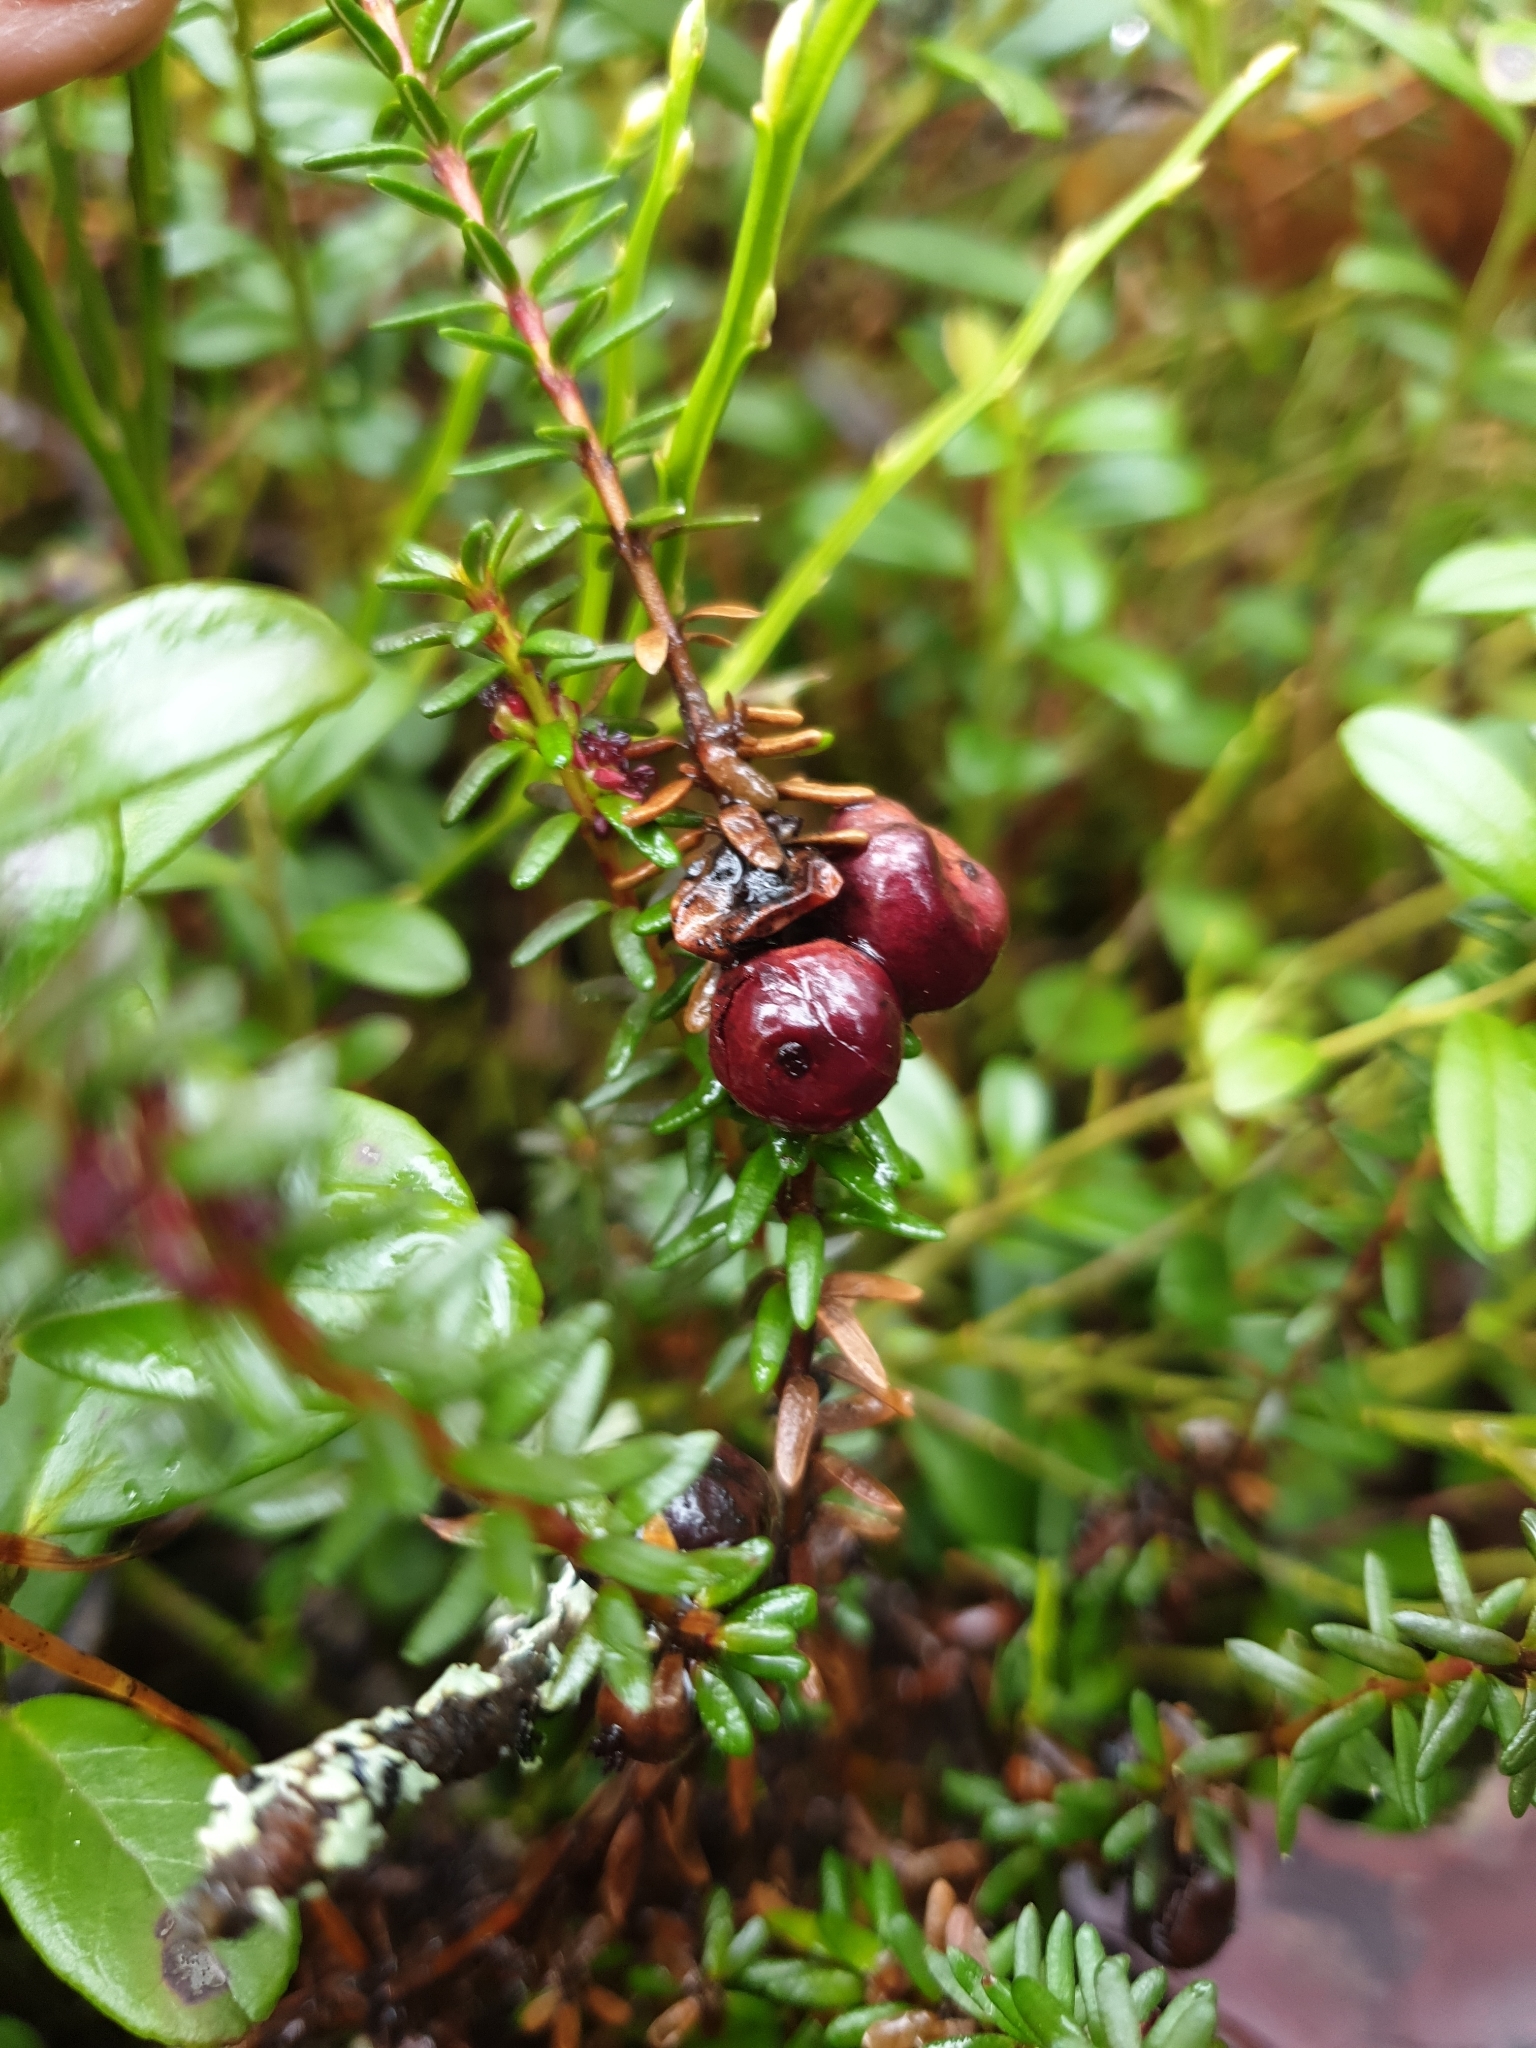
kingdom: Plantae
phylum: Tracheophyta
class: Magnoliopsida
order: Ericales
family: Ericaceae
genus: Empetrum
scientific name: Empetrum nigrum
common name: Black crowberry
